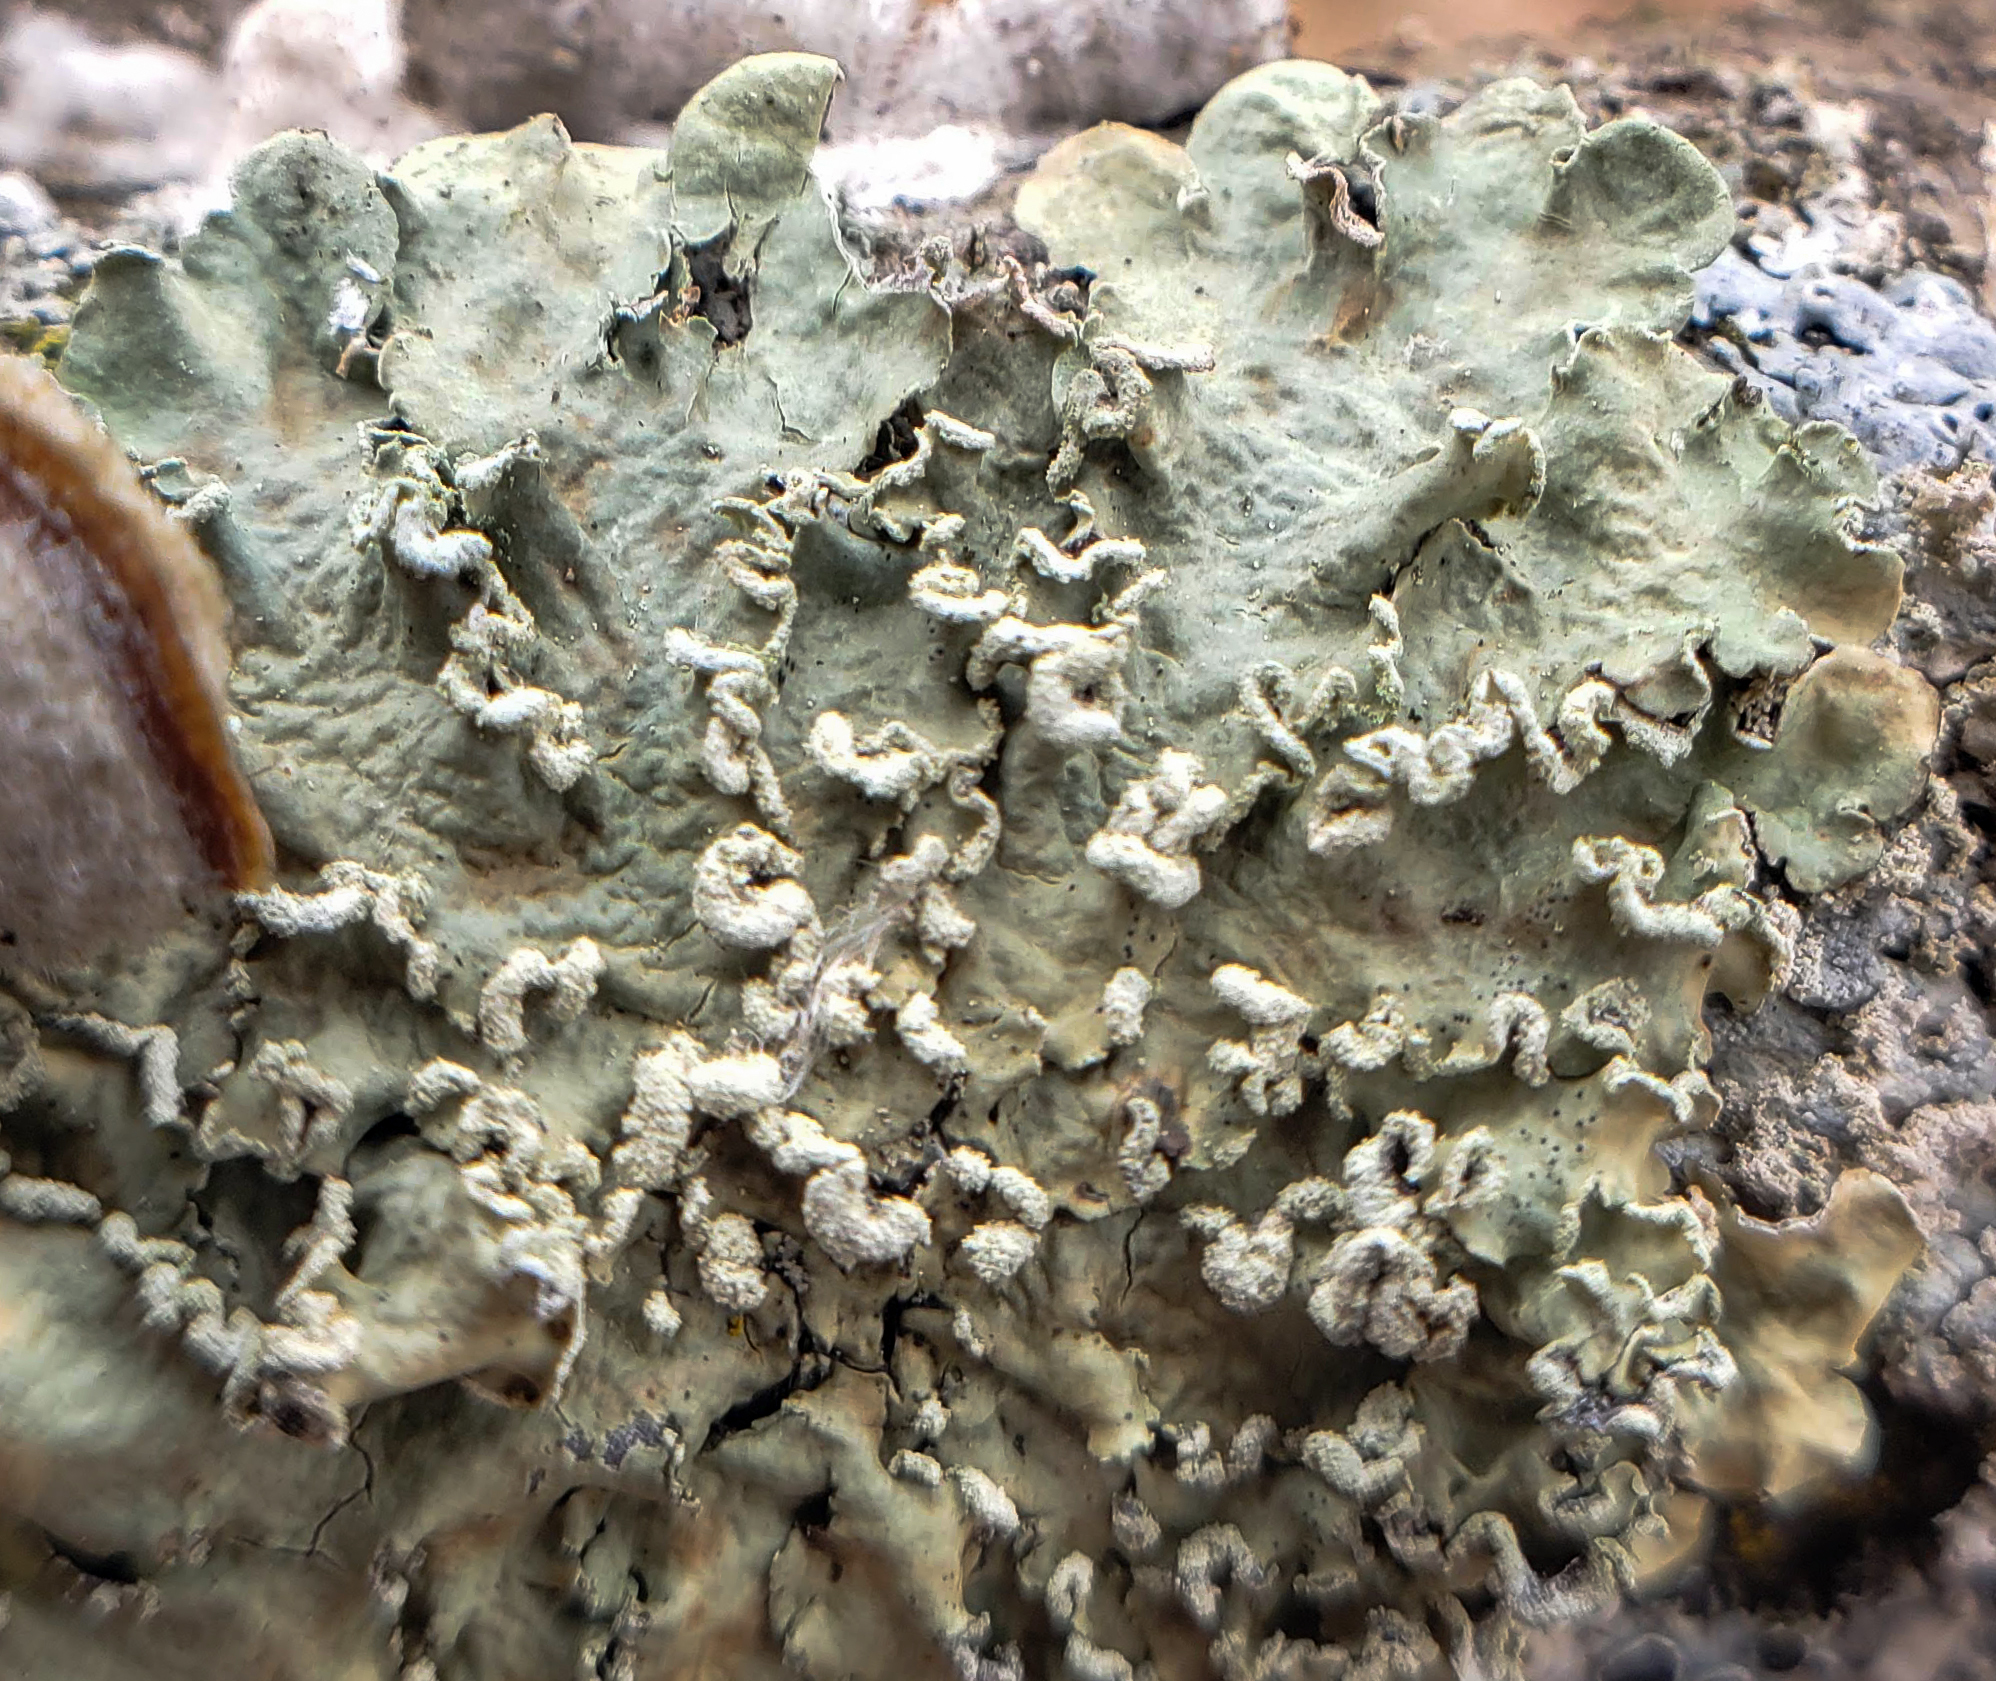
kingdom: Fungi
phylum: Ascomycota
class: Lecanoromycetes
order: Lecanorales
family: Parmeliaceae
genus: Flavopunctelia
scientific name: Flavopunctelia soredica
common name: Powder-edged speckled greenshield
